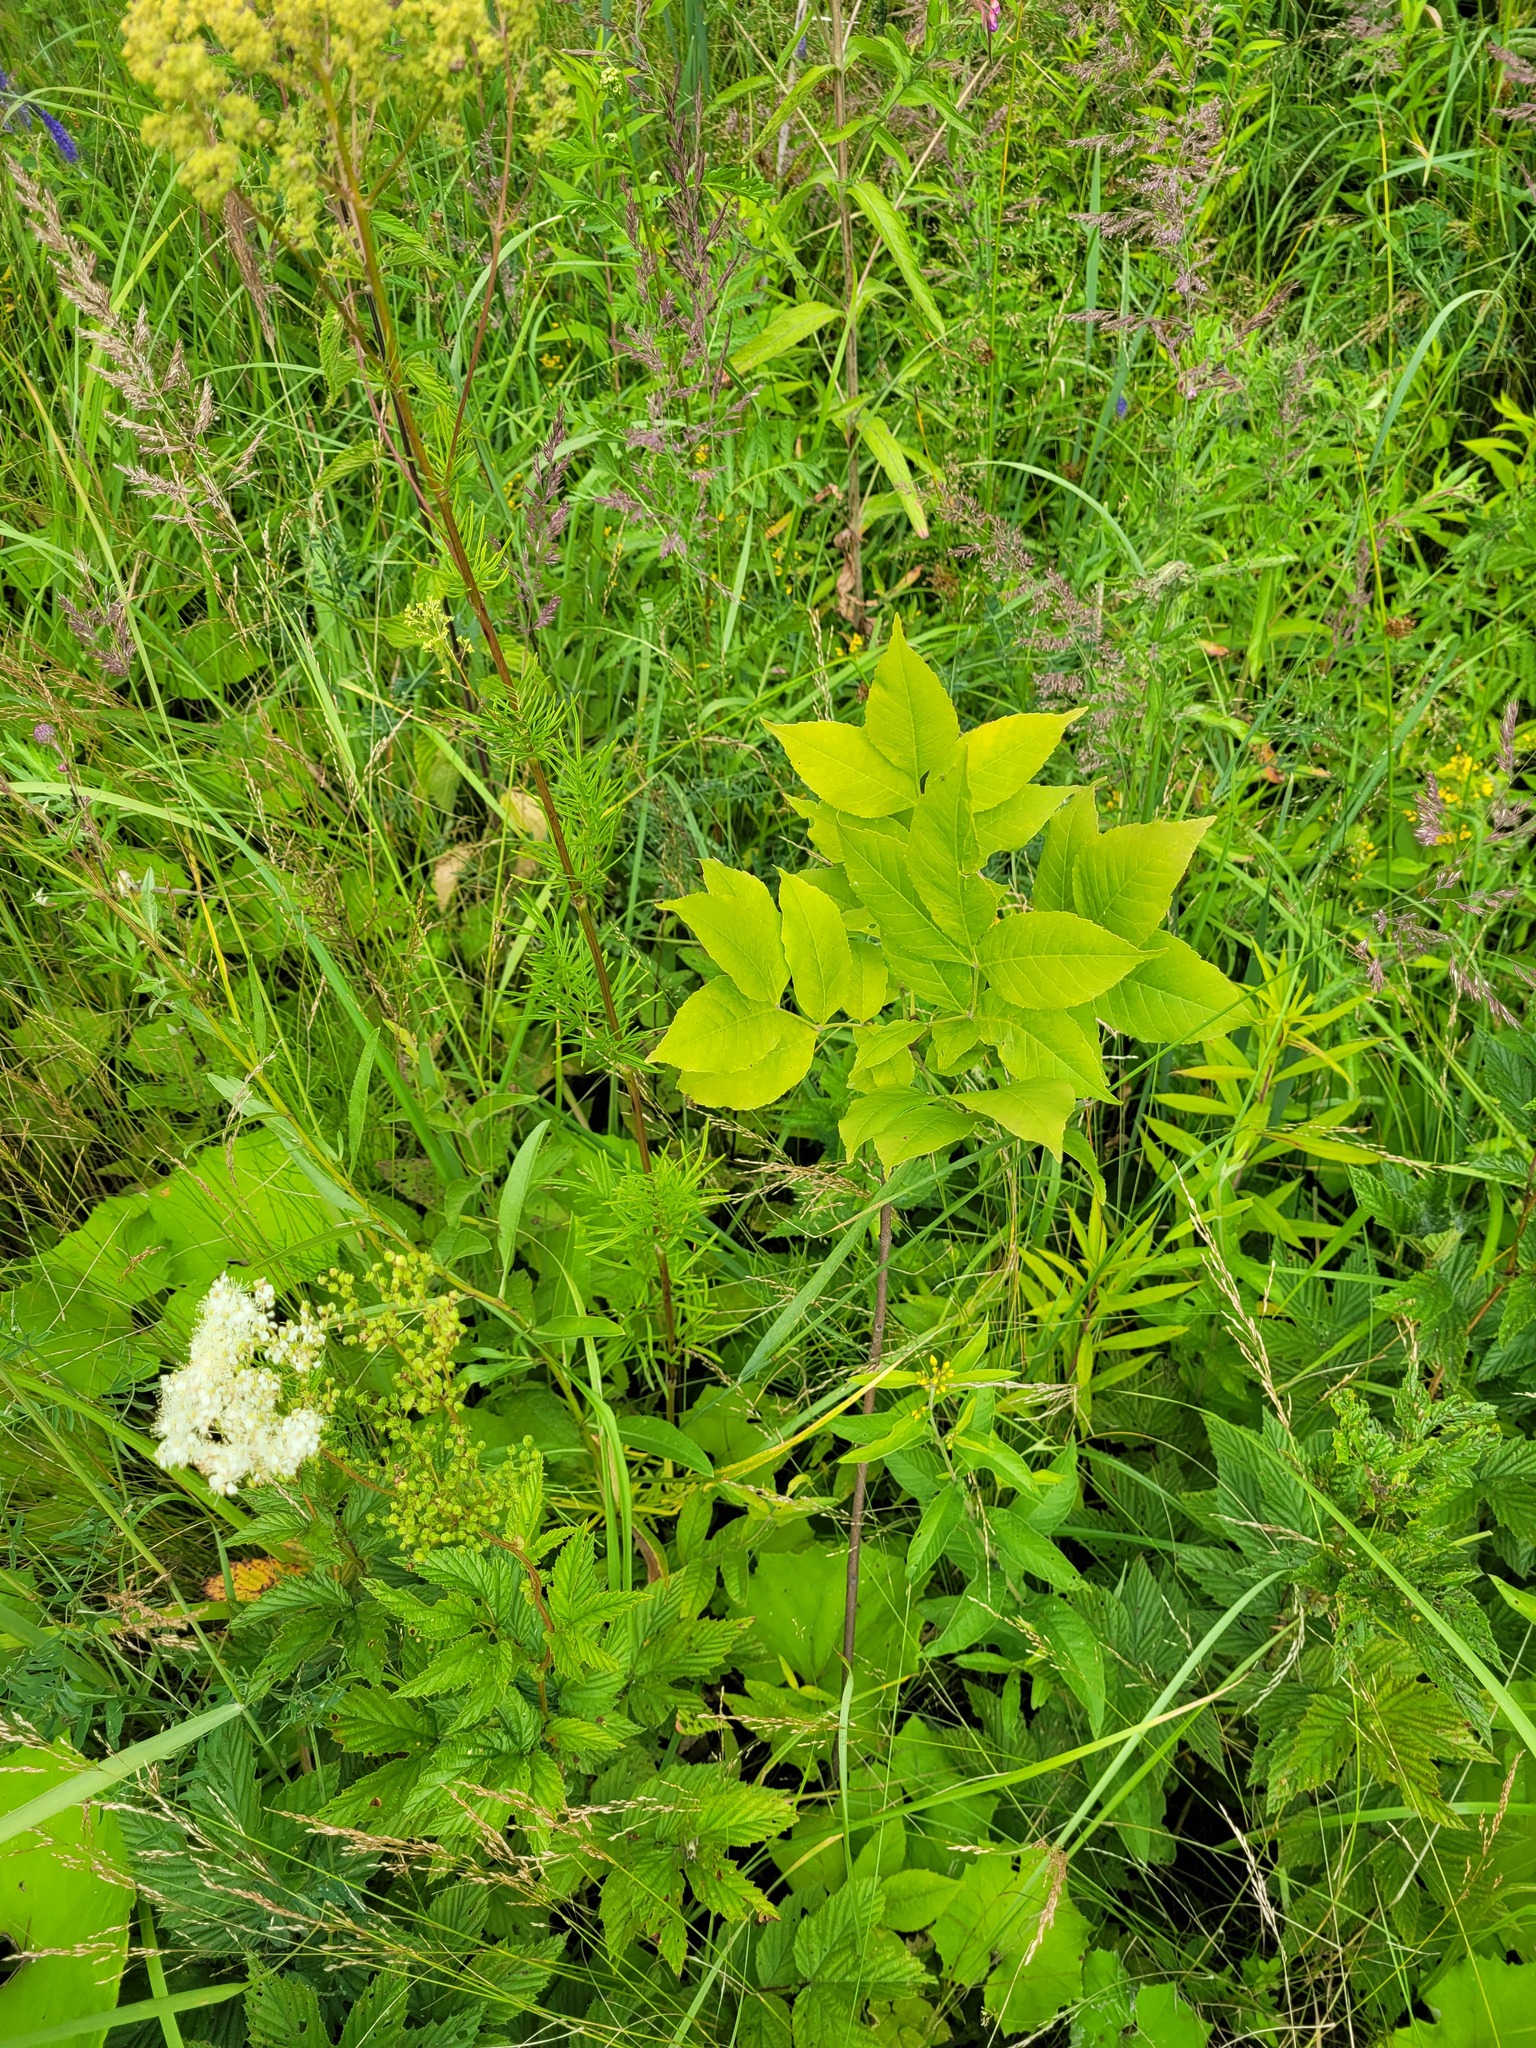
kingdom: Plantae
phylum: Tracheophyta
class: Magnoliopsida
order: Lamiales
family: Oleaceae
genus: Fraxinus
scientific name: Fraxinus pennsylvanica
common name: Green ash
